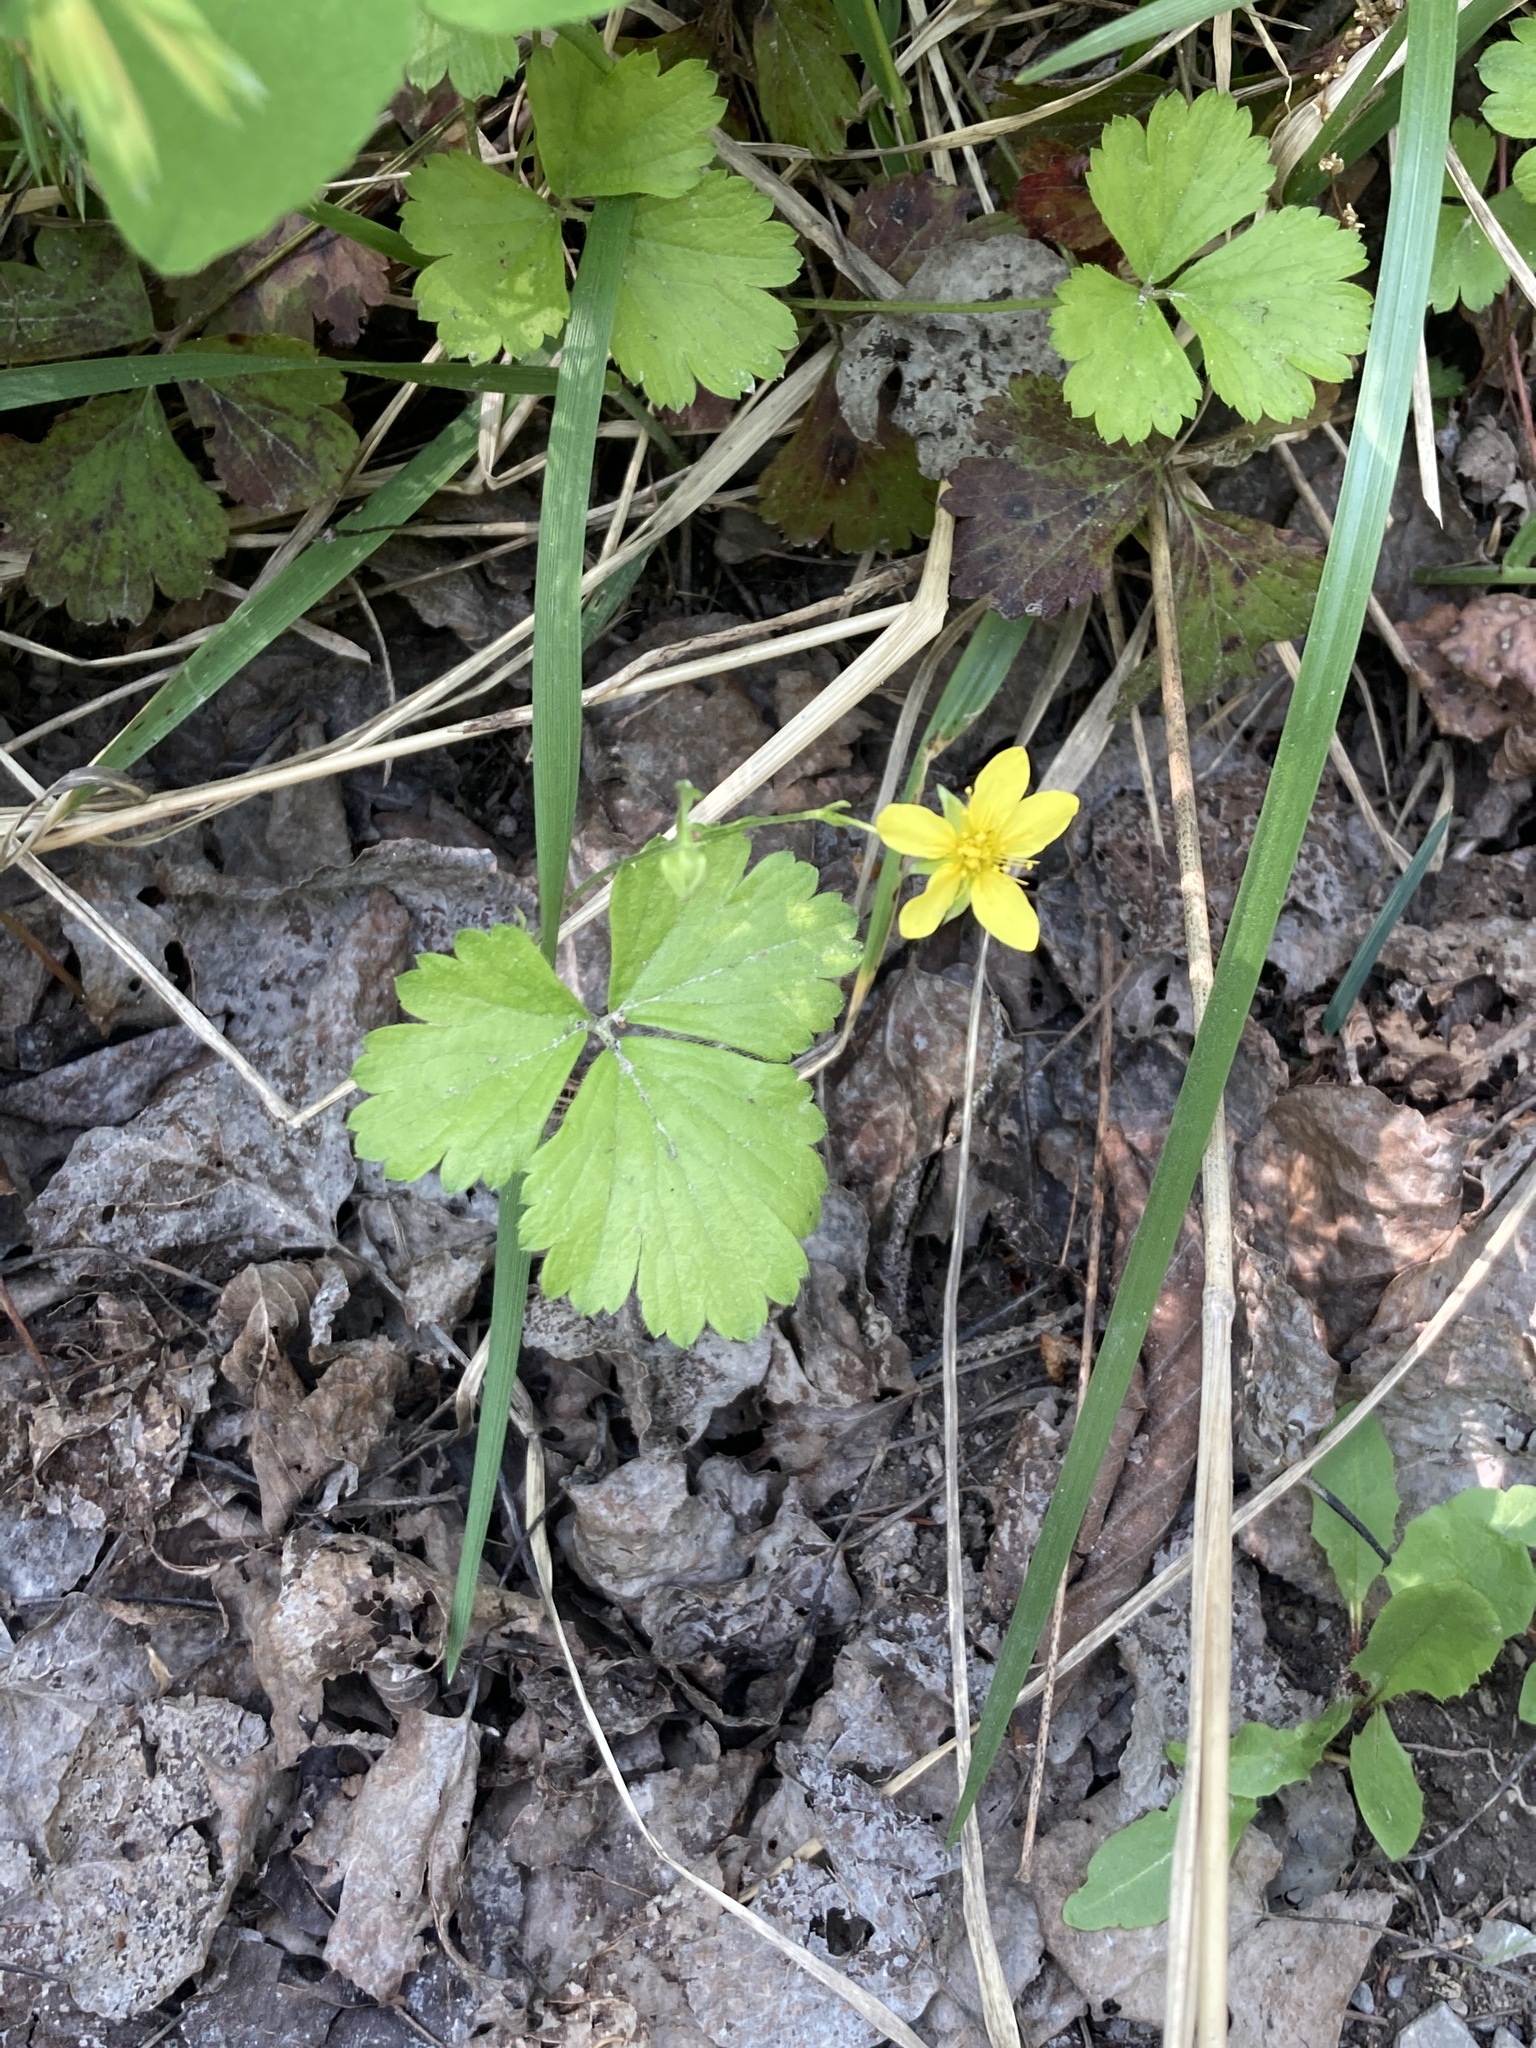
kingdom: Plantae
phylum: Tracheophyta
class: Magnoliopsida
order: Rosales
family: Rosaceae
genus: Geum
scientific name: Geum fragarioides
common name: Appalachian barren strawberry
